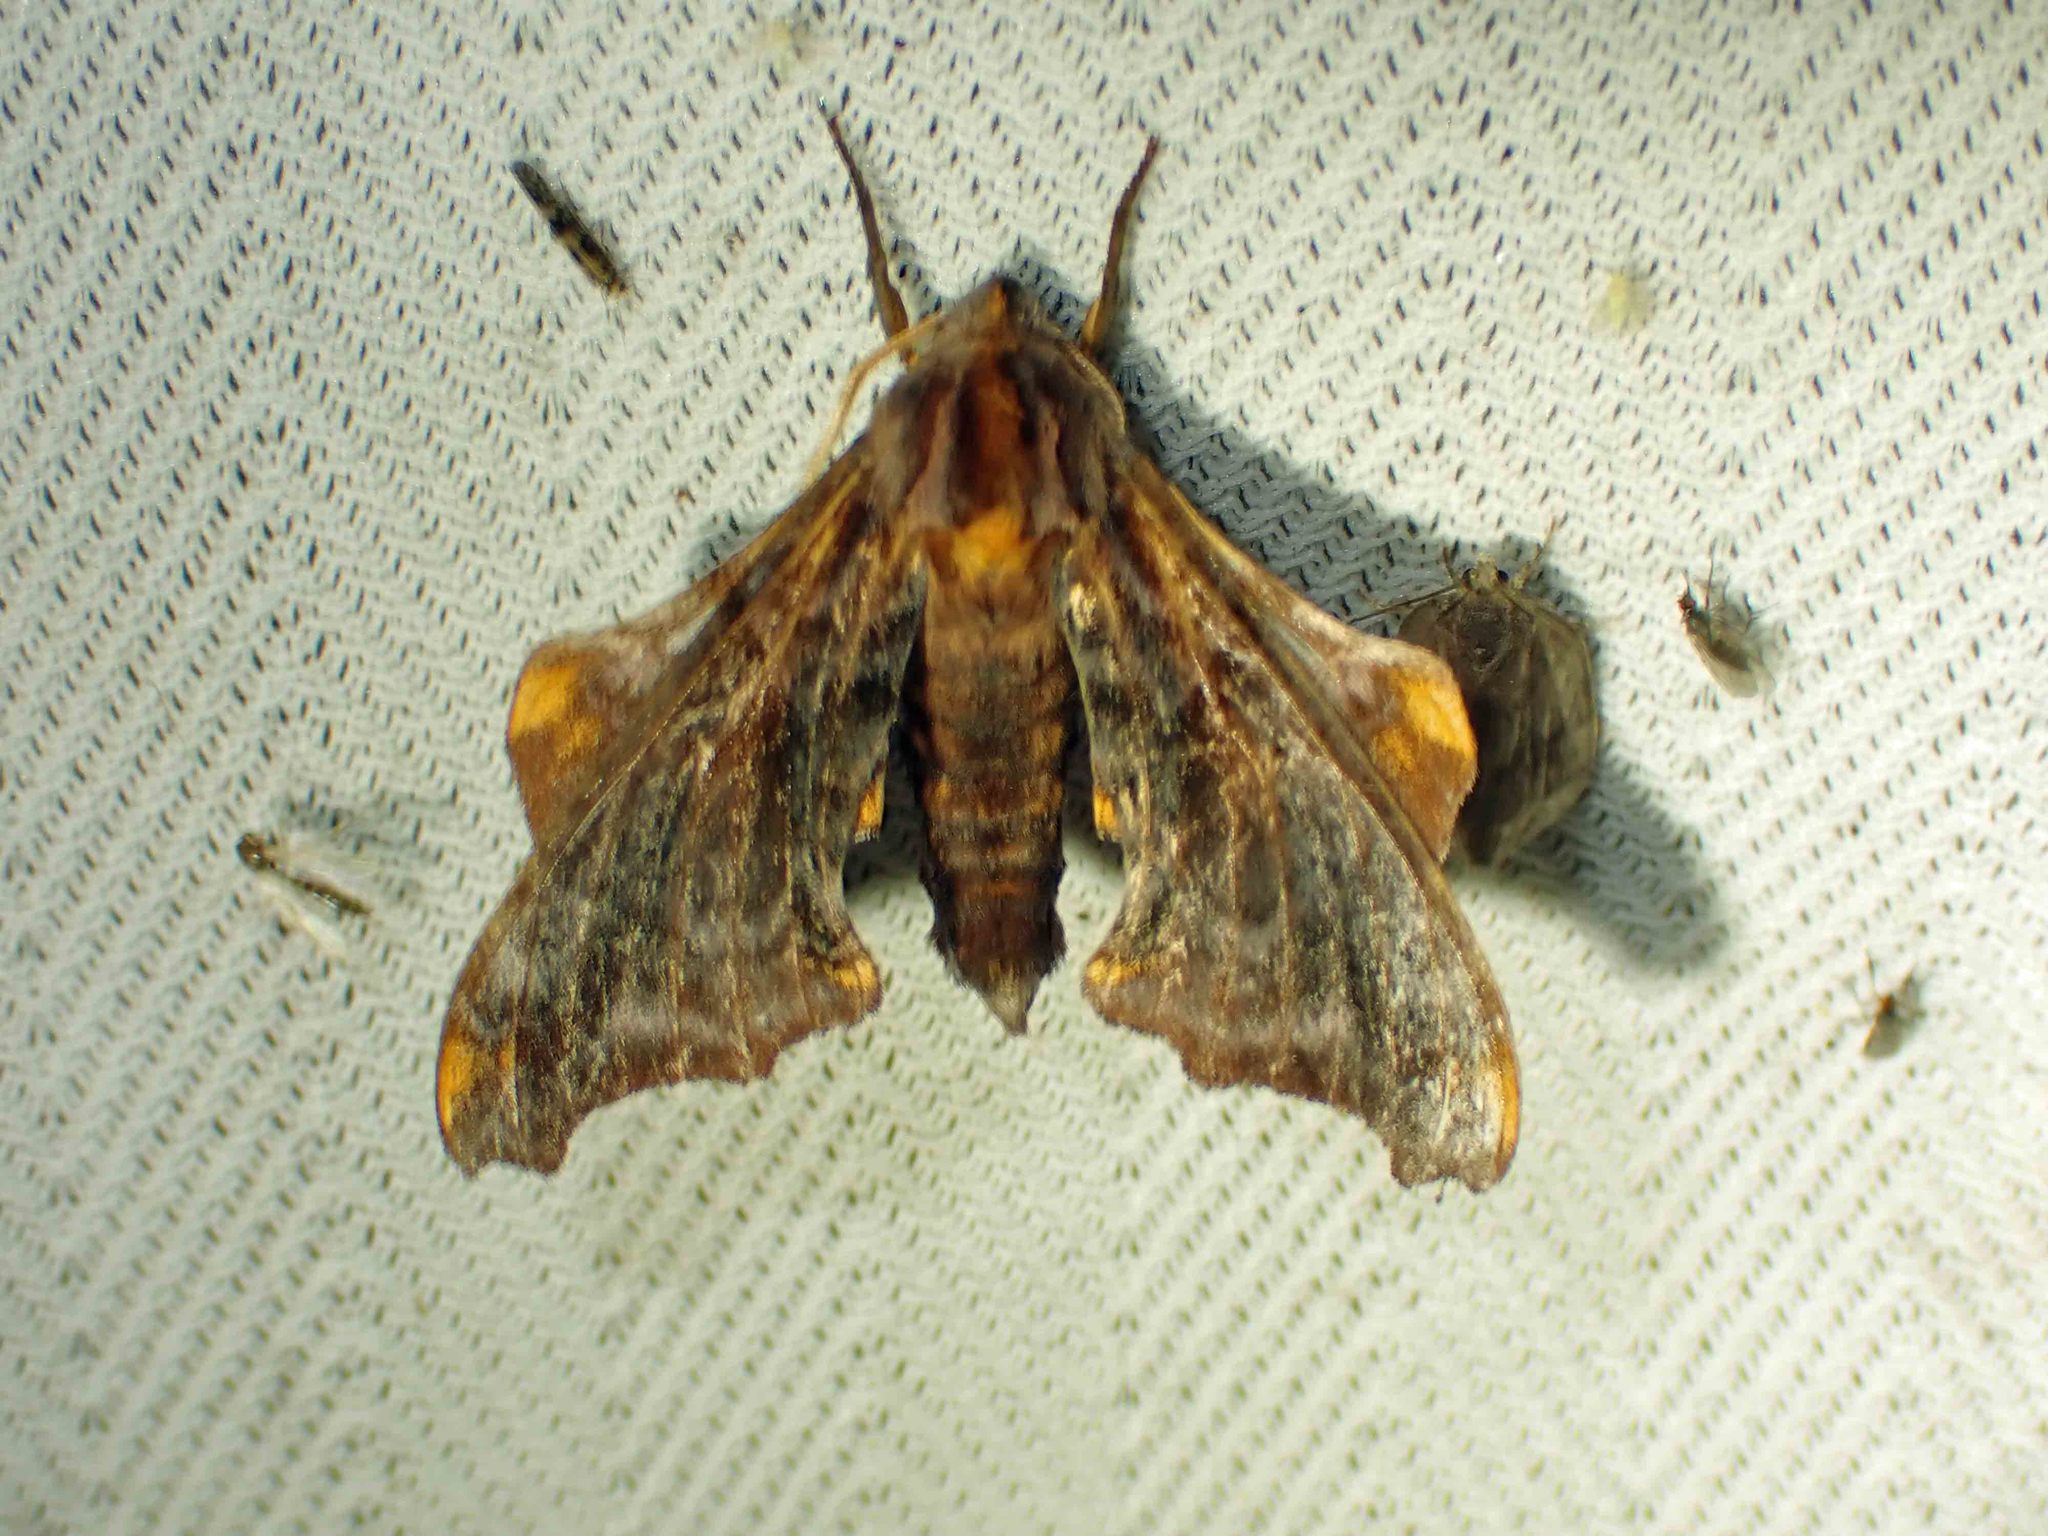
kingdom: Animalia
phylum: Arthropoda
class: Insecta
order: Lepidoptera
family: Sphingidae
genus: Paonias
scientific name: Paonias myops
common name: Small-eyed sphinx
